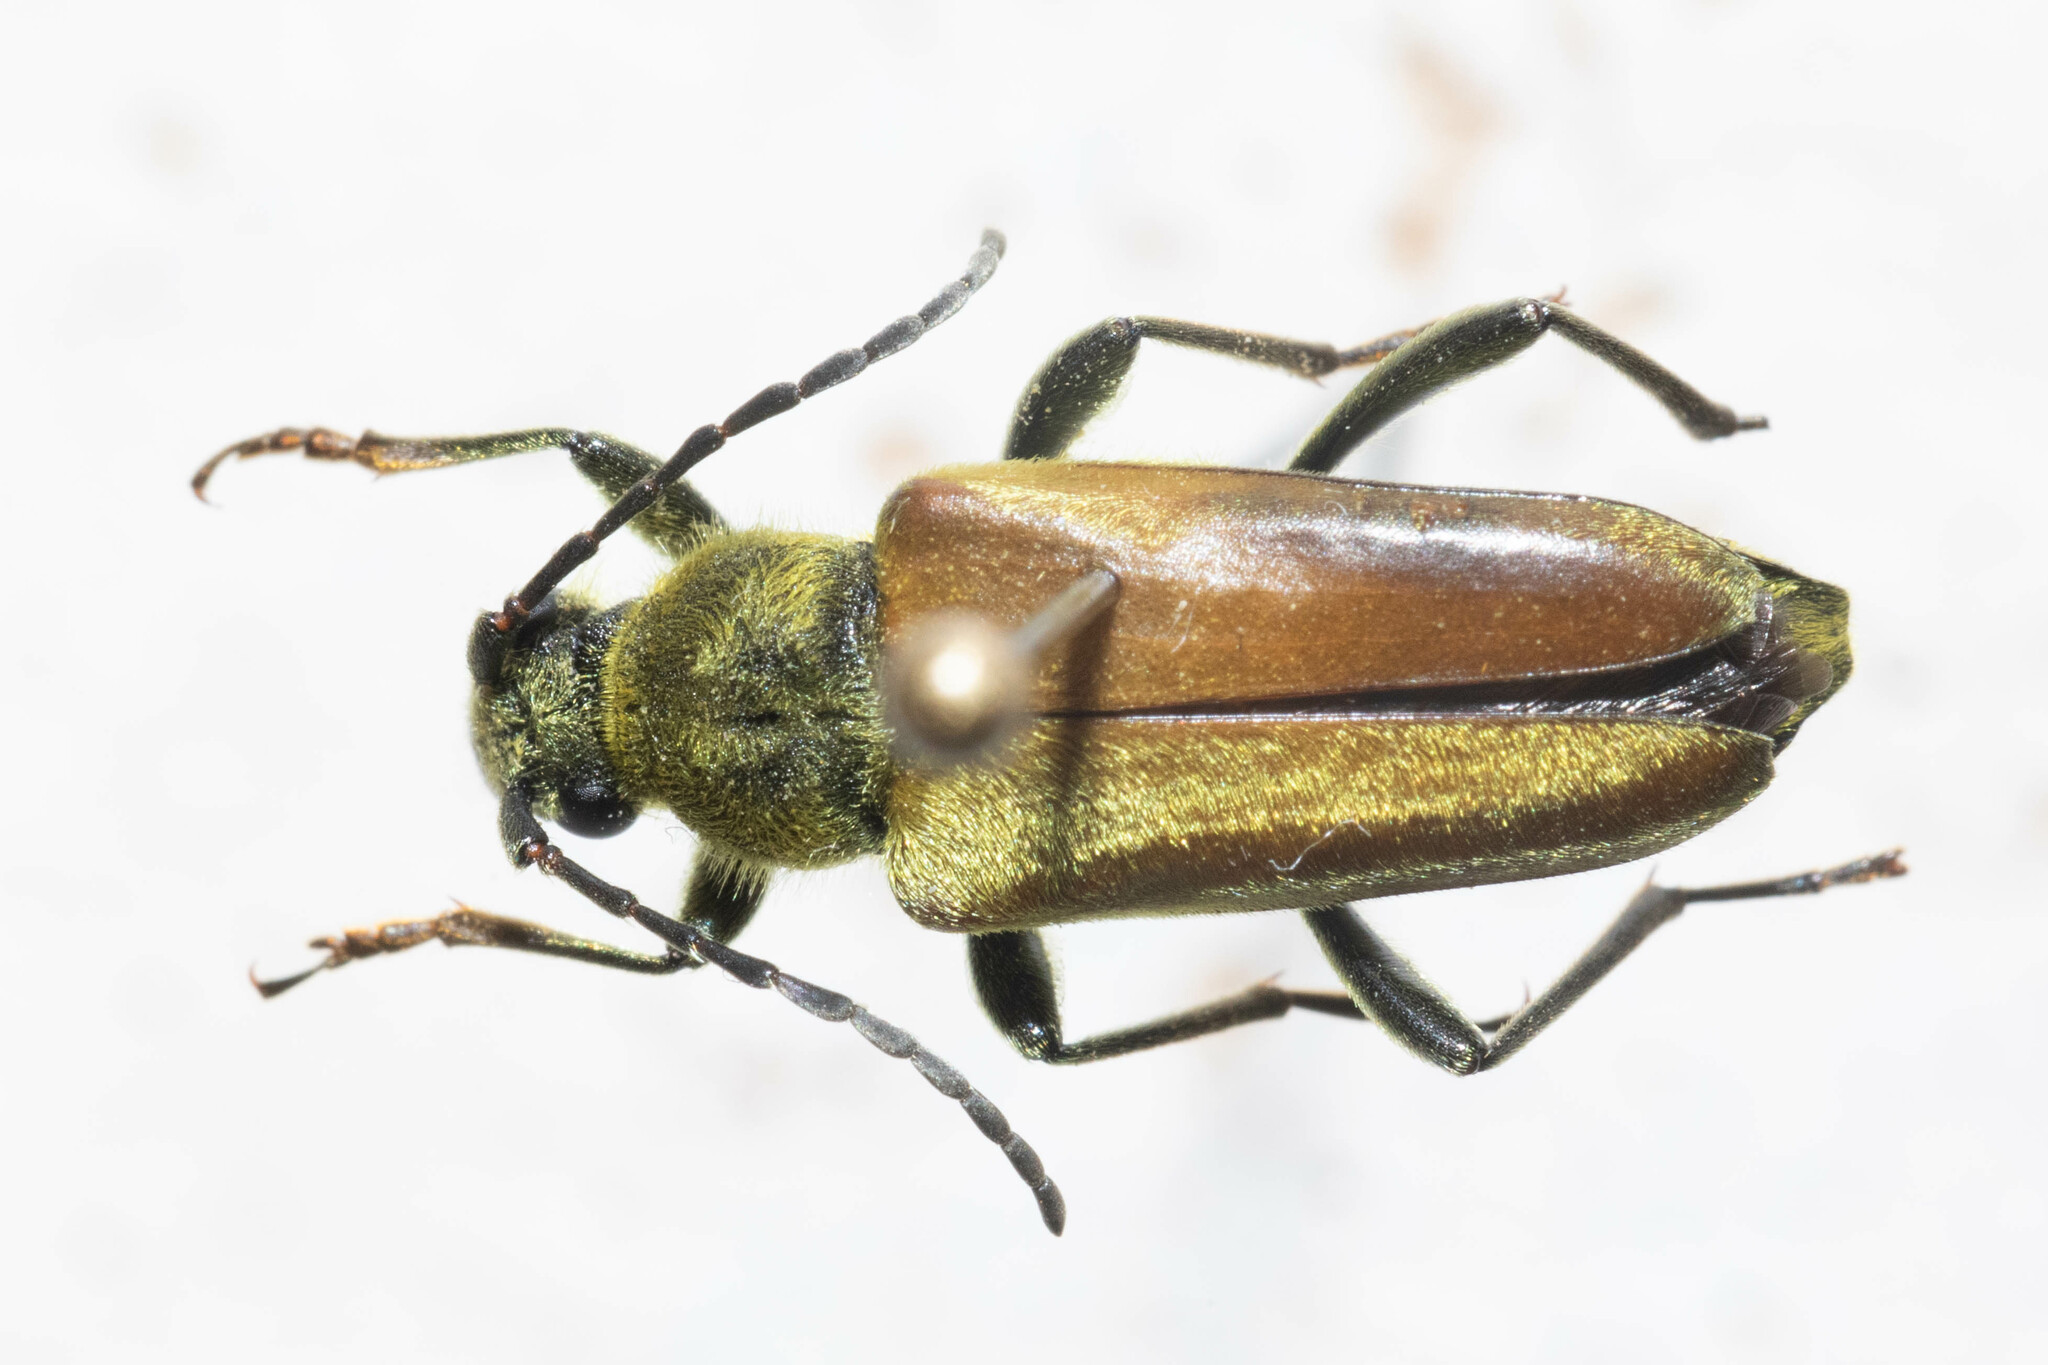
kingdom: Animalia
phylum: Arthropoda
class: Insecta
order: Coleoptera
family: Cerambycidae
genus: Cosmosalia
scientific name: Cosmosalia chrysocoma
